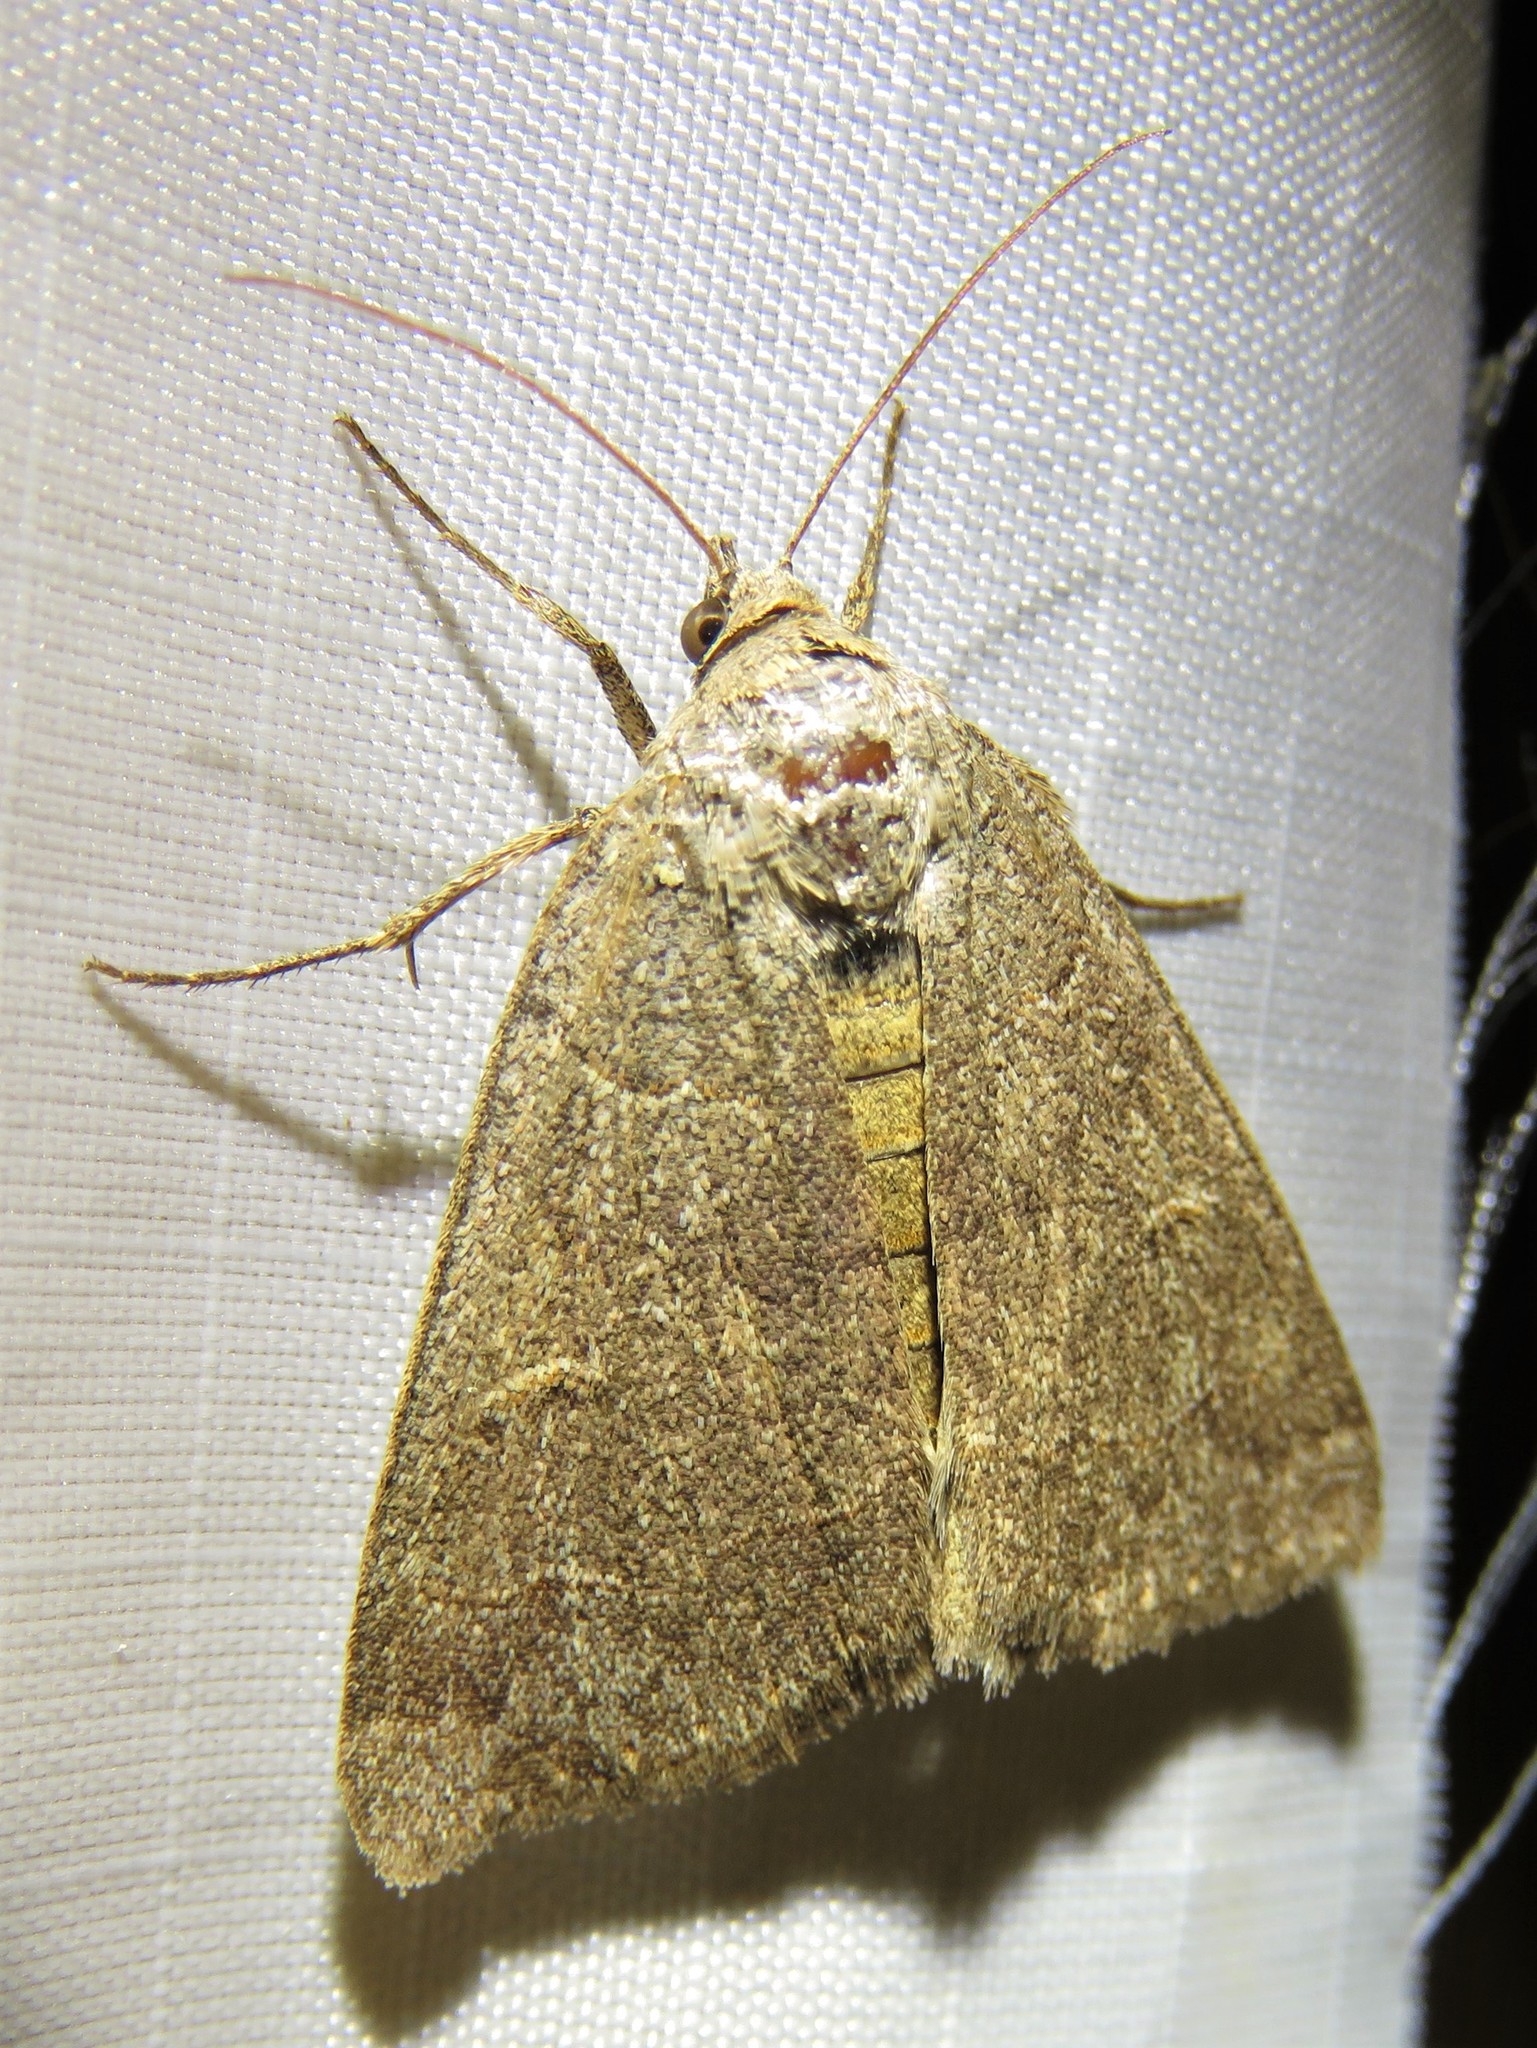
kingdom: Animalia
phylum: Arthropoda
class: Insecta
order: Lepidoptera
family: Erebidae
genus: Phoberia
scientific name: Phoberia atomaris
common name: Common oak moth
